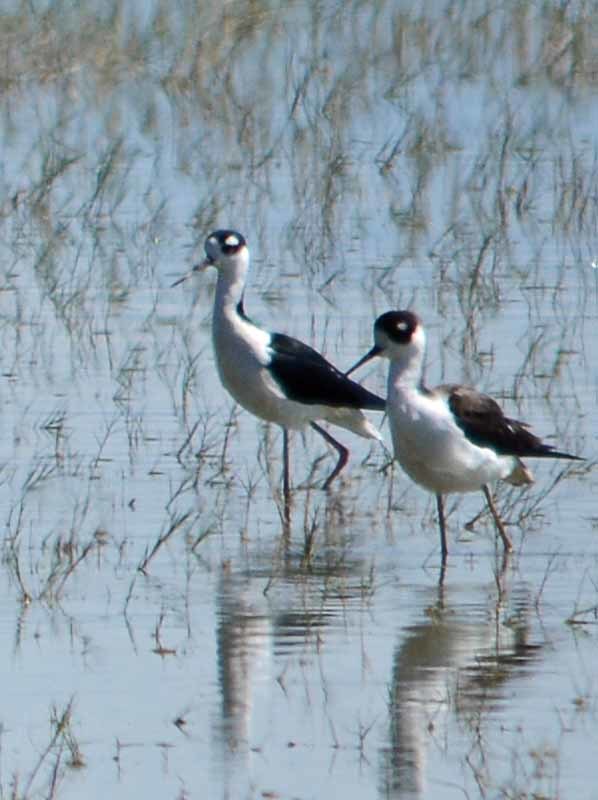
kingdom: Animalia
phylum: Chordata
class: Aves
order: Charadriiformes
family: Recurvirostridae
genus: Himantopus
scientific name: Himantopus mexicanus
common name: Black-necked stilt
